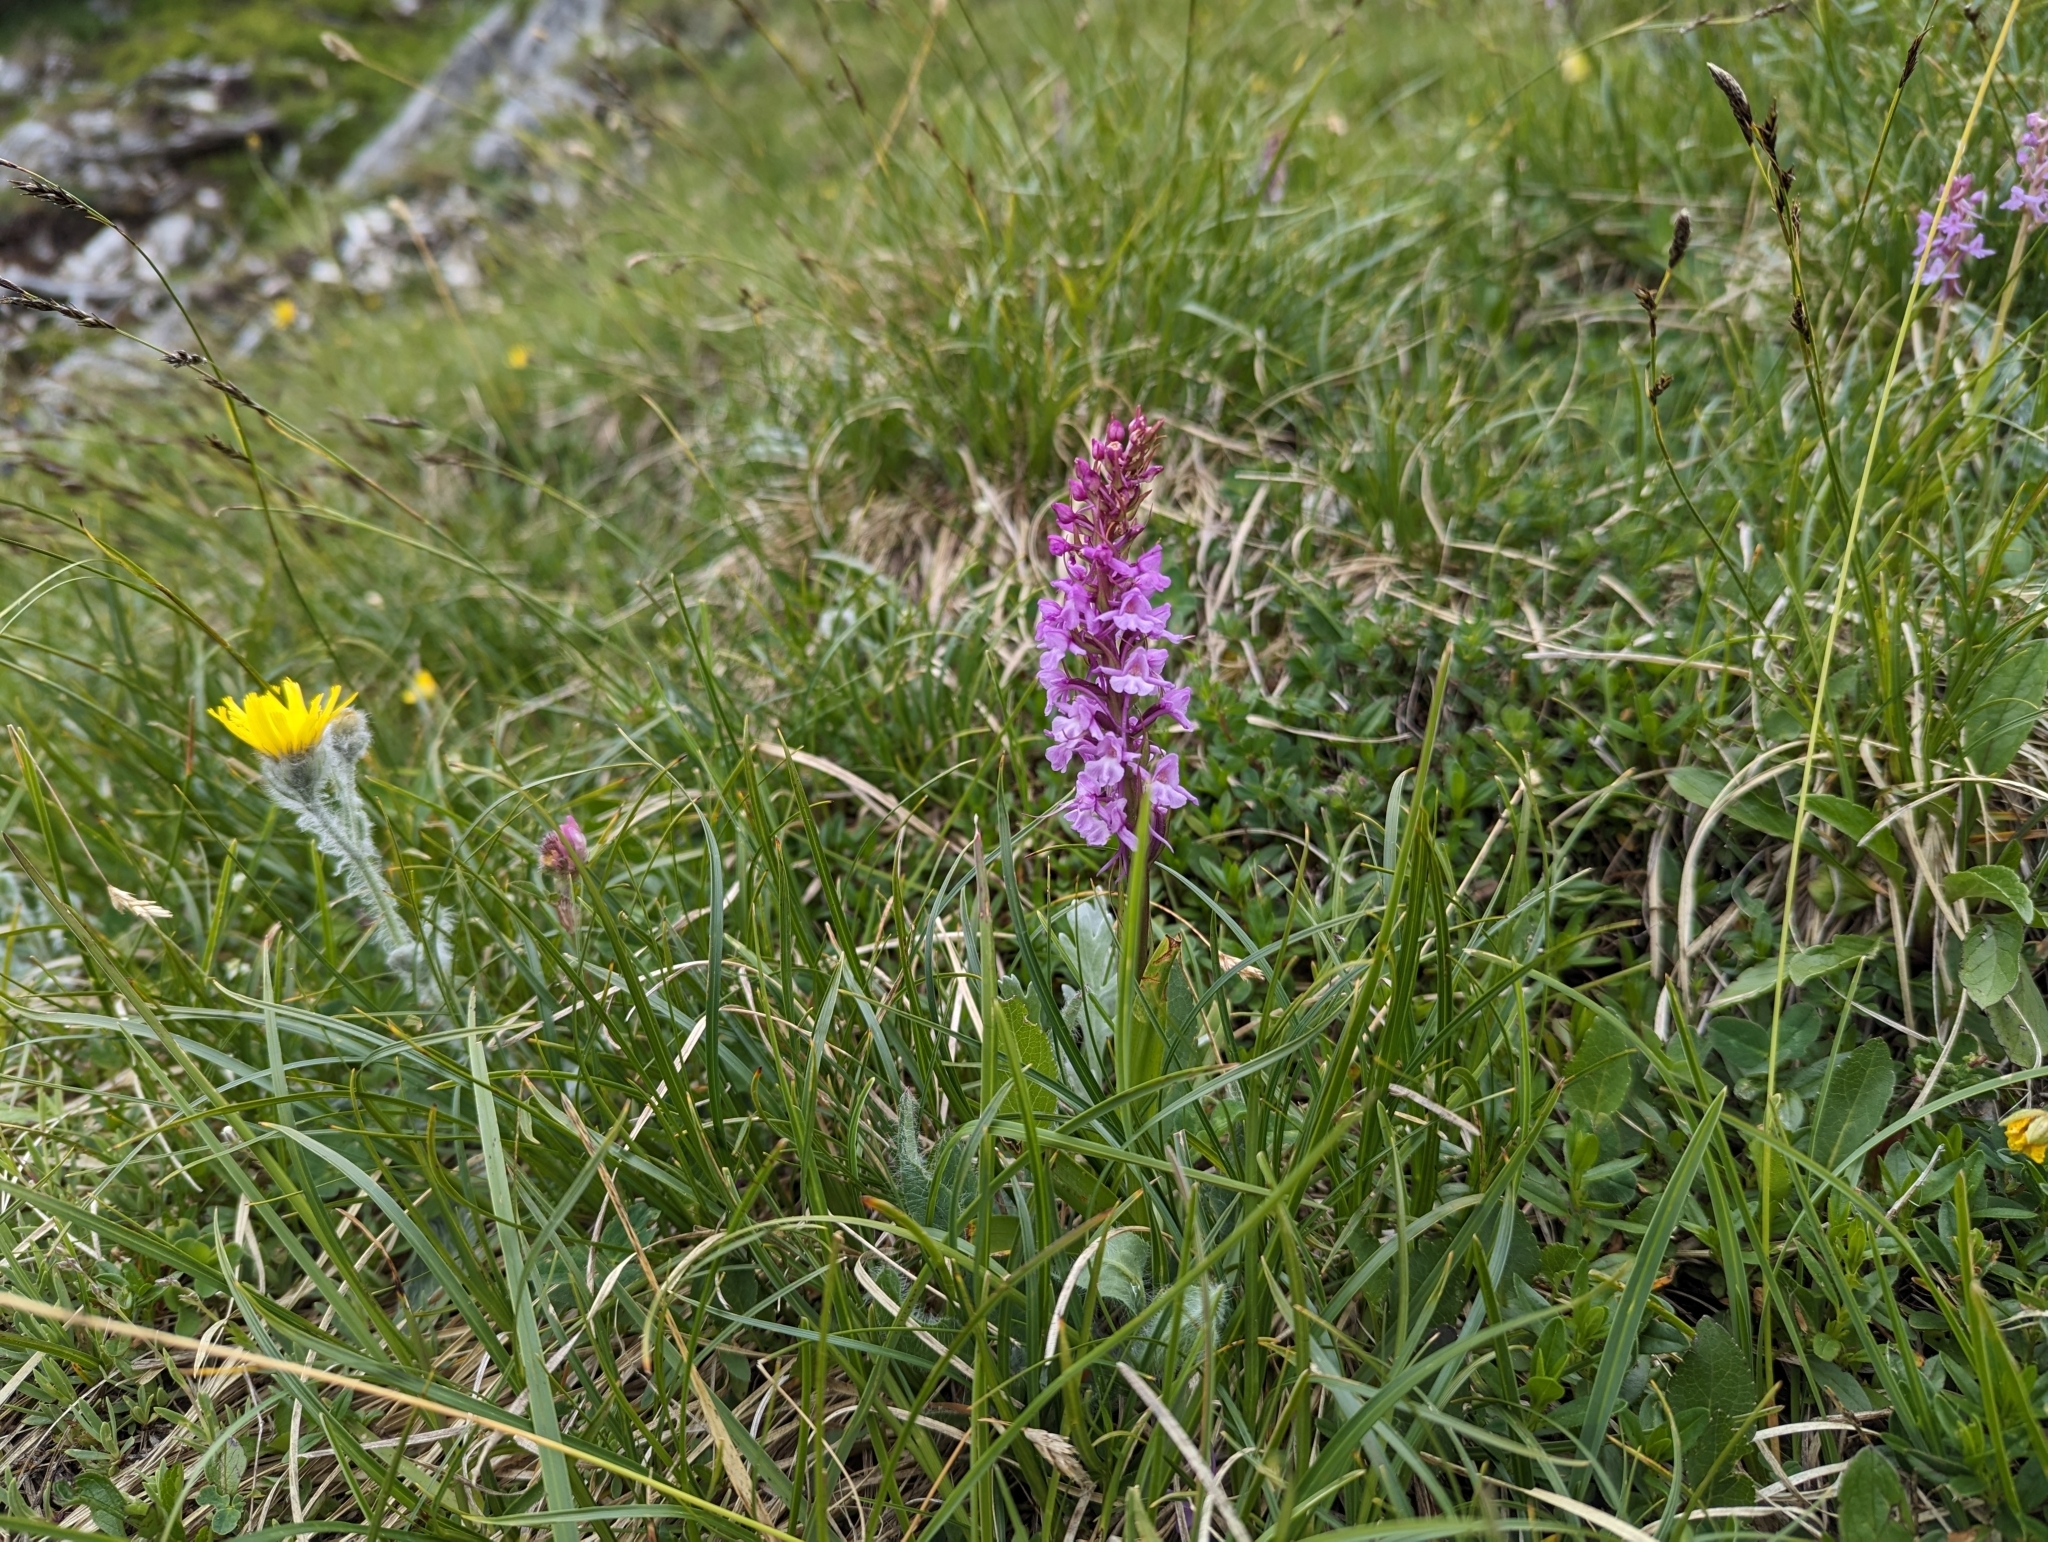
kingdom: Plantae
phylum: Tracheophyta
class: Liliopsida
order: Asparagales
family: Orchidaceae
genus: Gymnadenia
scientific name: Gymnadenia conopsea
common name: Fragrant orchid
